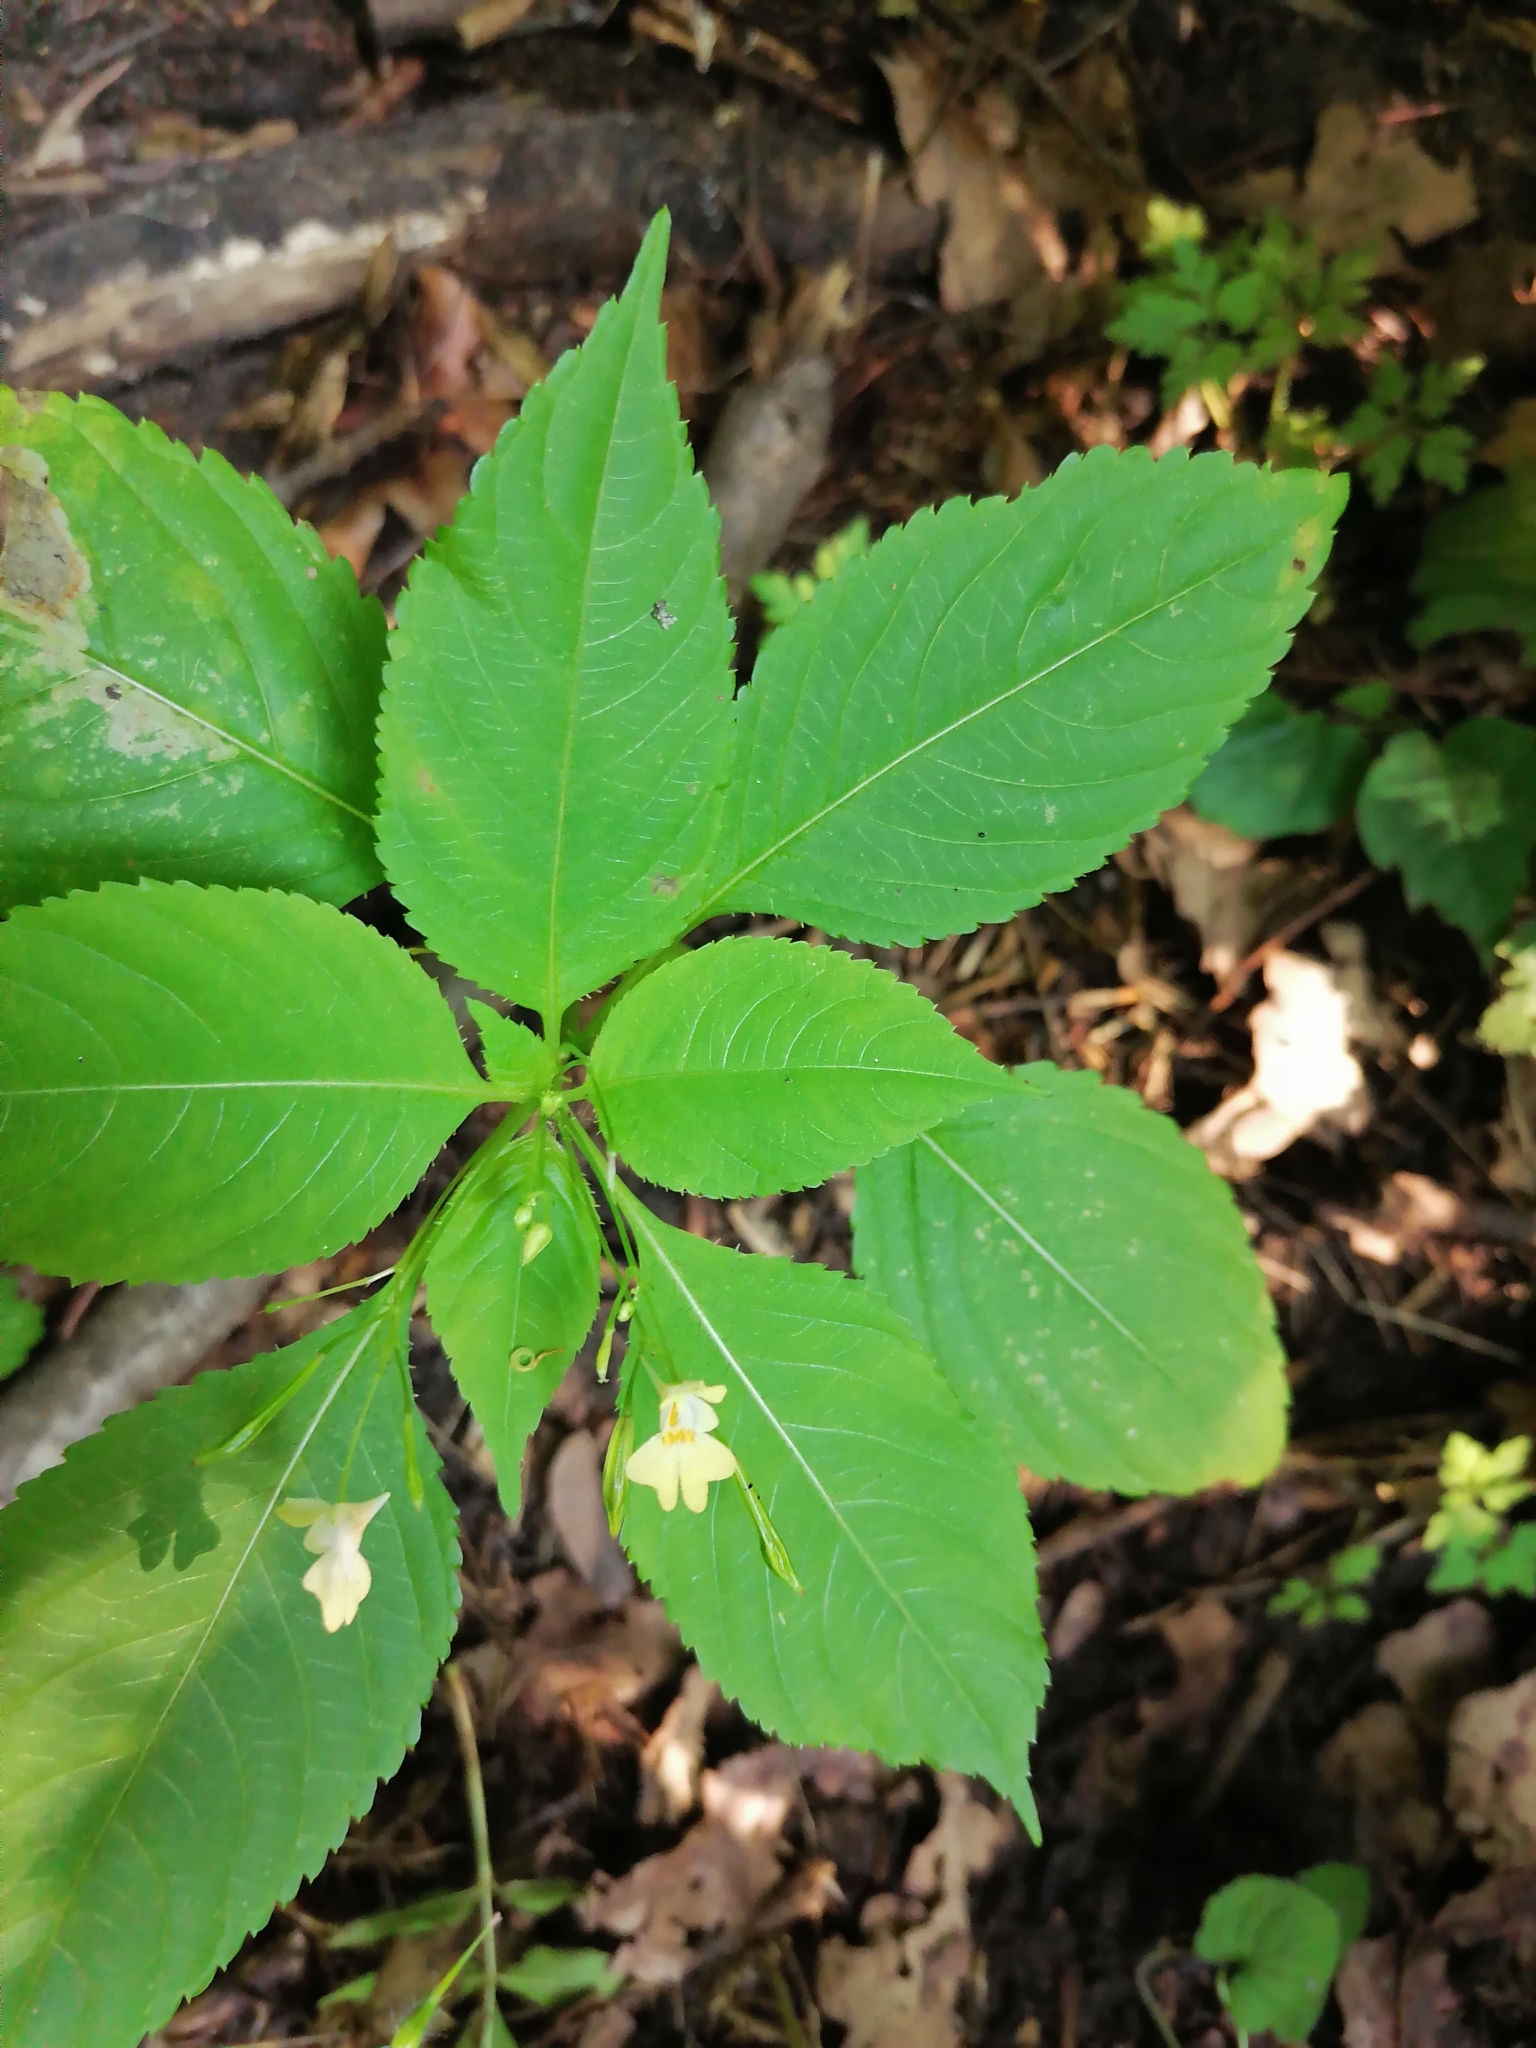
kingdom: Plantae
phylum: Tracheophyta
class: Magnoliopsida
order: Ericales
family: Balsaminaceae
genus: Impatiens
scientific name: Impatiens parviflora
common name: Small balsam
